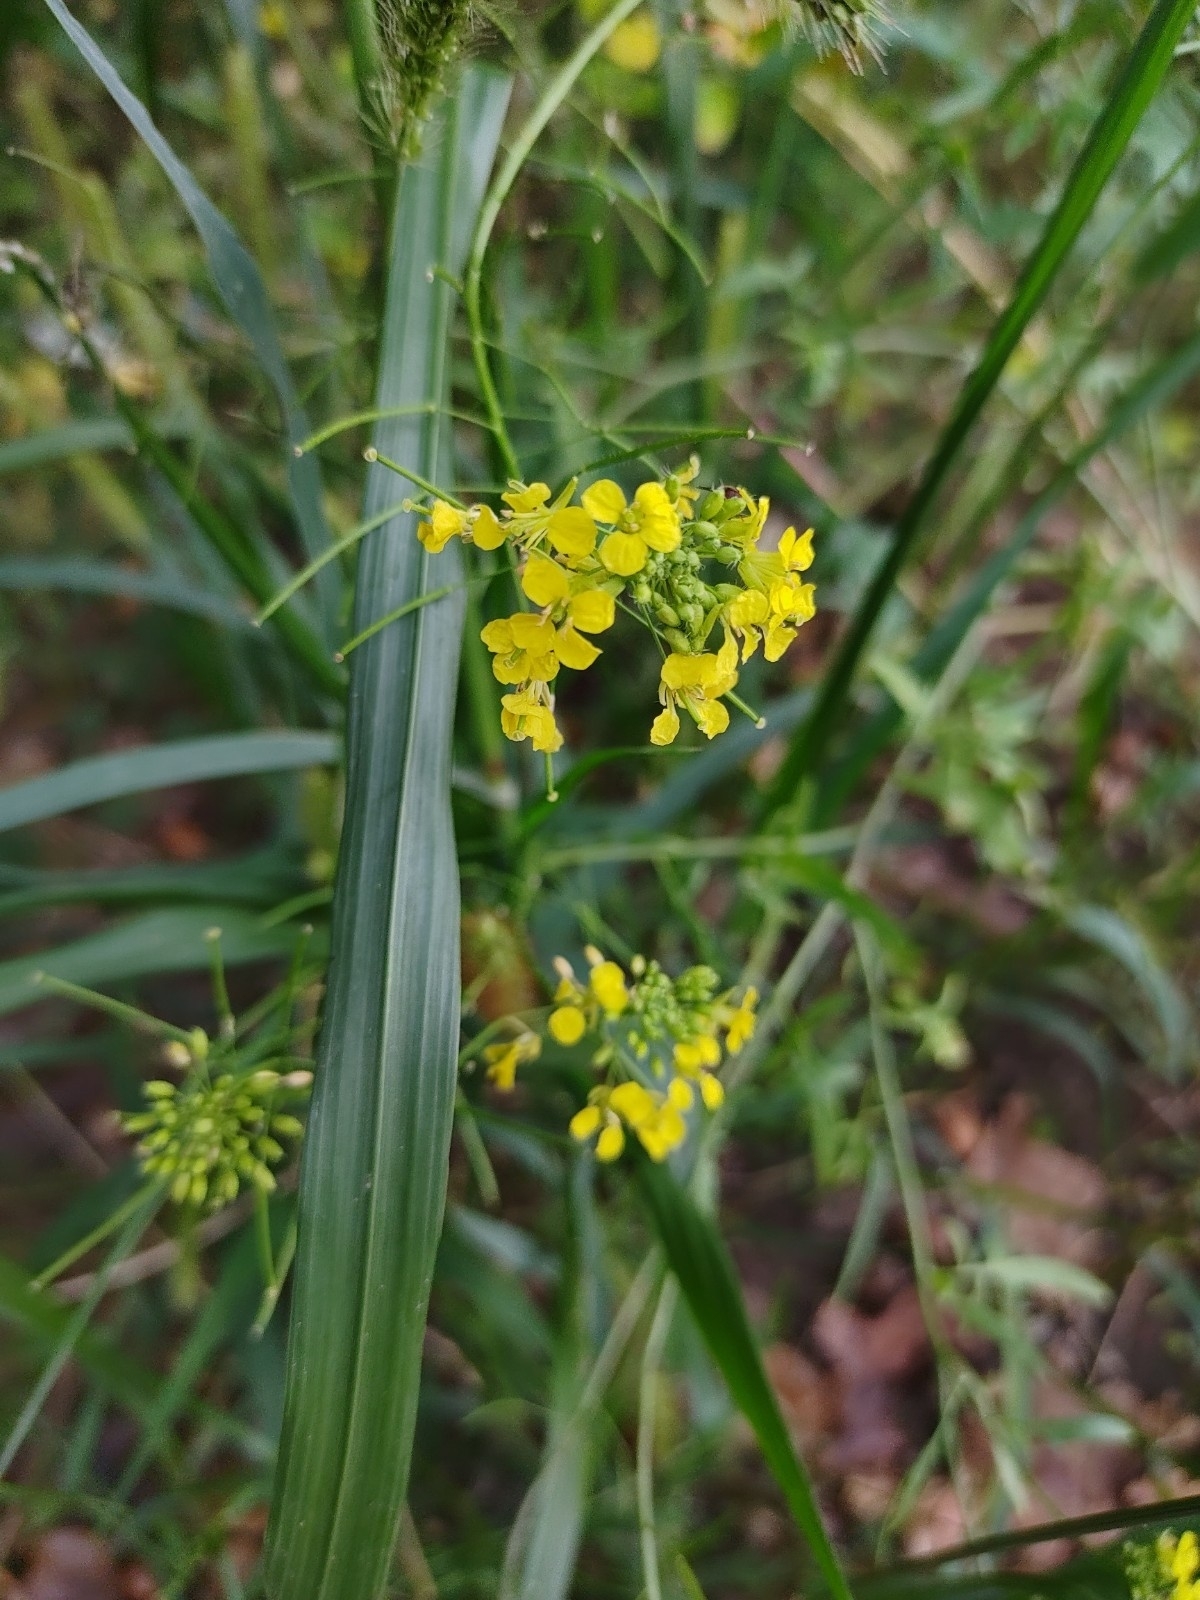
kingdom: Plantae
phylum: Tracheophyta
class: Magnoliopsida
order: Brassicales
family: Brassicaceae
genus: Sisymbrium
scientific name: Sisymbrium loeselii
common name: False london-rocket
